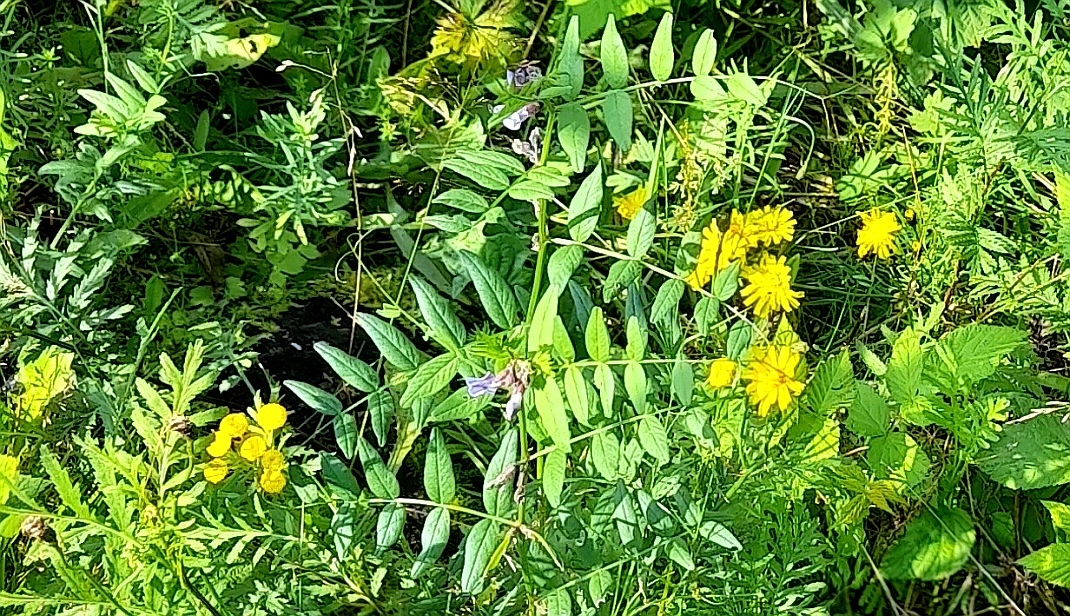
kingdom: Plantae
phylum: Tracheophyta
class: Magnoliopsida
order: Fabales
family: Fabaceae
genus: Vicia
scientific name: Vicia sepium
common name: Bush vetch
